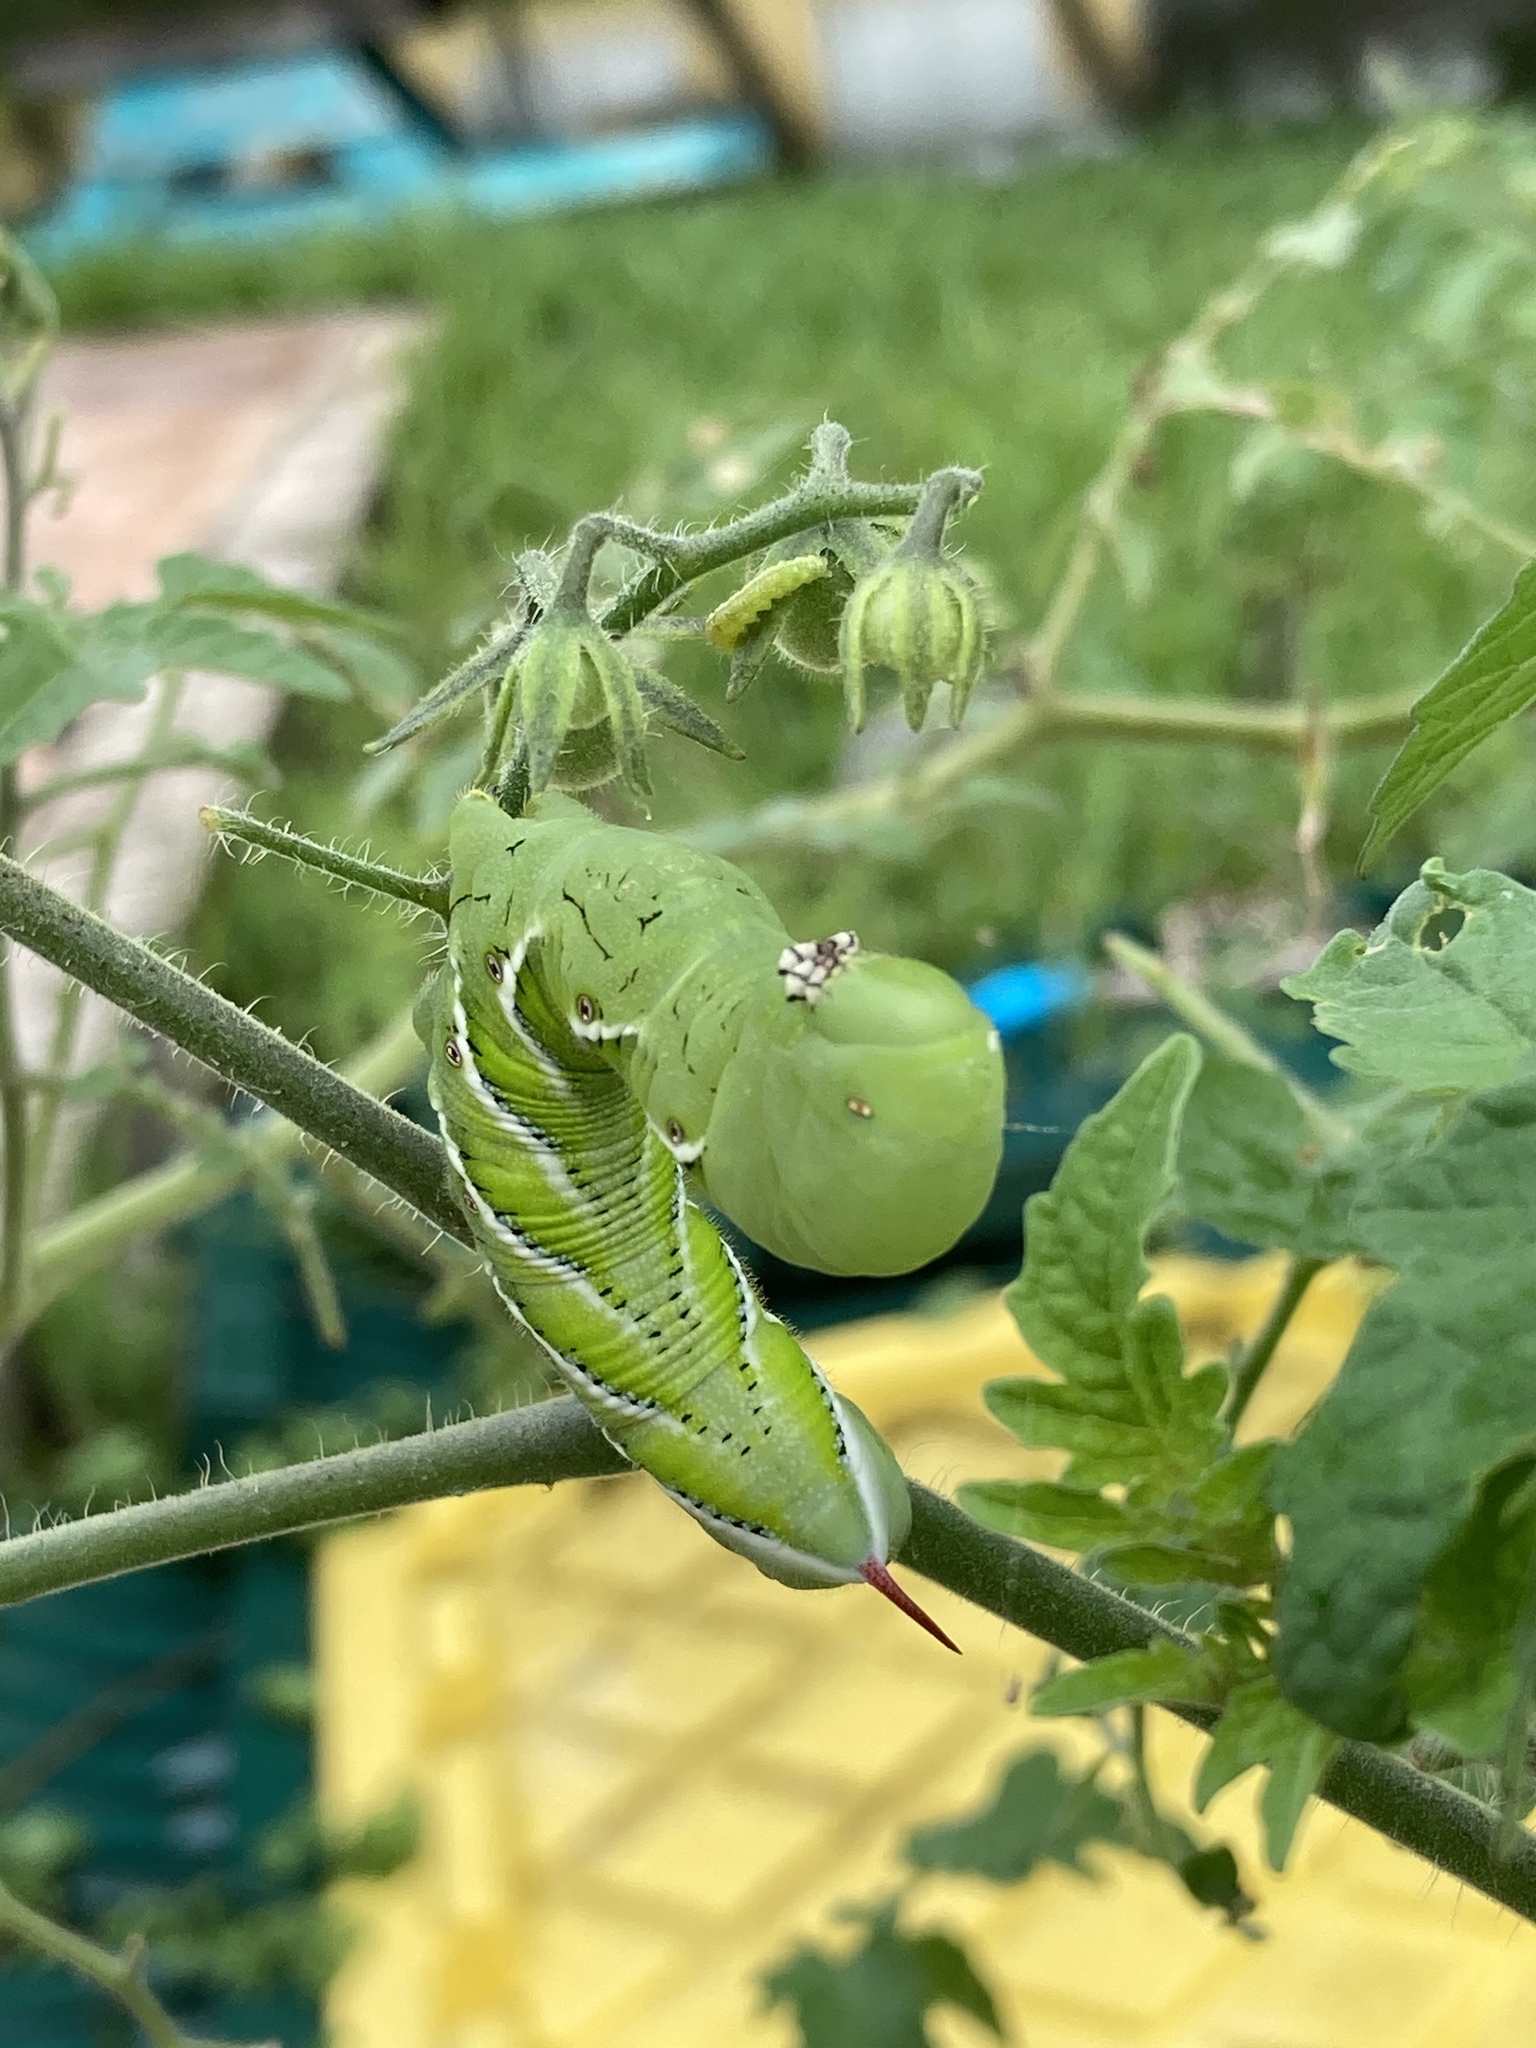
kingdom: Animalia
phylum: Arthropoda
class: Insecta
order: Lepidoptera
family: Sphingidae
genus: Manduca
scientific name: Manduca sexta
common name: Carolina sphinx
